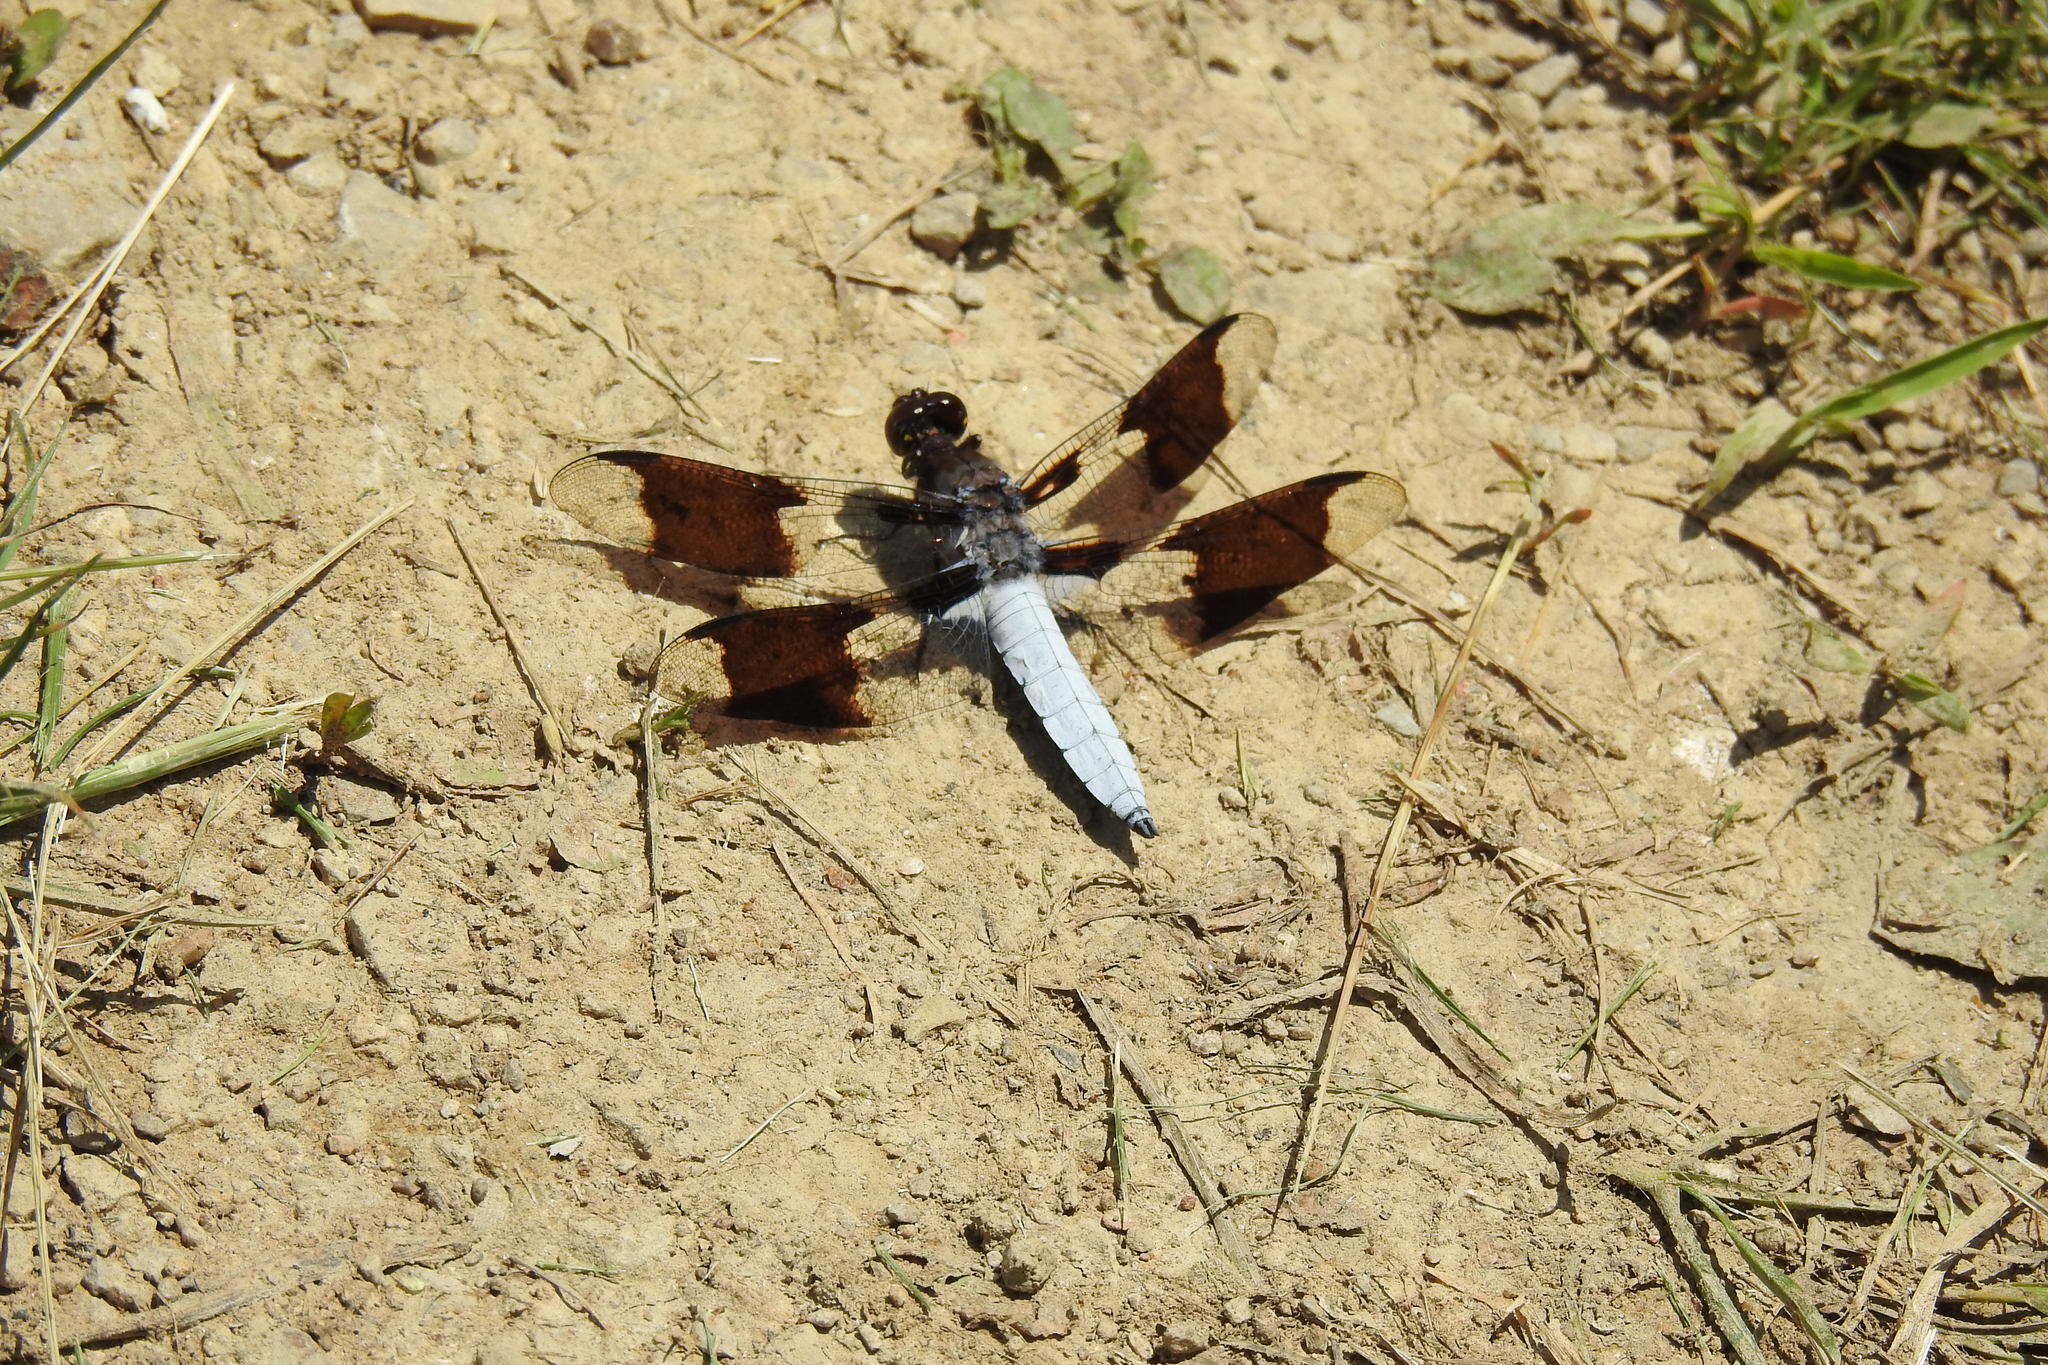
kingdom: Animalia
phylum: Arthropoda
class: Insecta
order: Odonata
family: Libellulidae
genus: Plathemis
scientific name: Plathemis lydia
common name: Common whitetail
